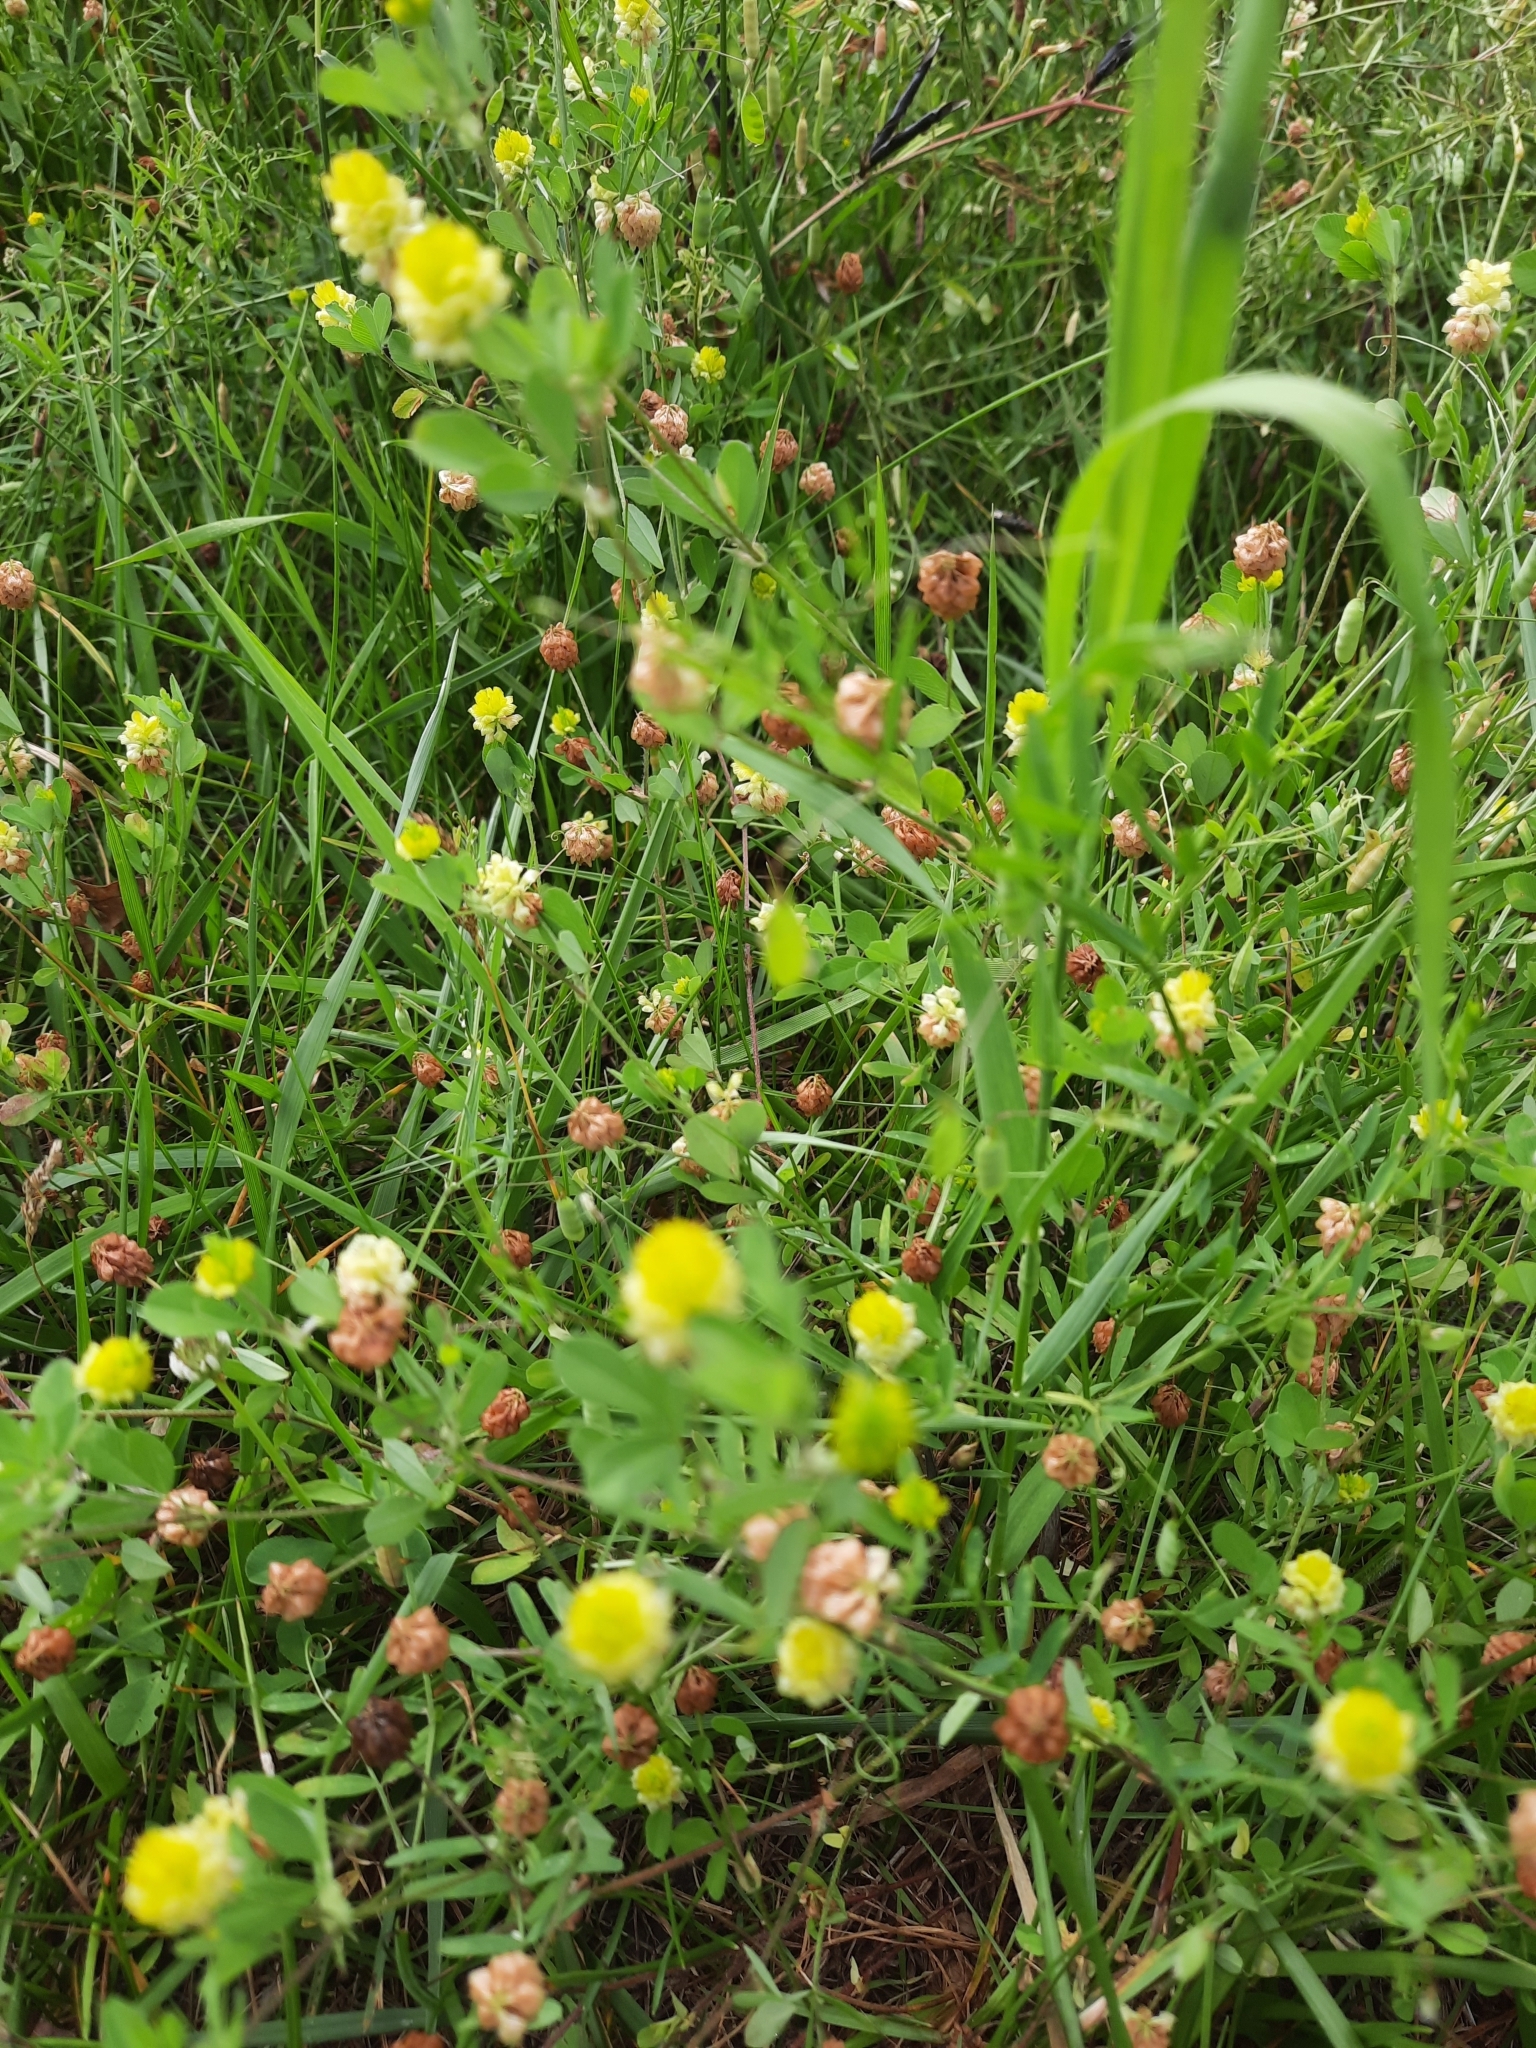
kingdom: Plantae
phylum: Tracheophyta
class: Magnoliopsida
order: Fabales
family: Fabaceae
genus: Trifolium
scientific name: Trifolium campestre
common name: Field clover
